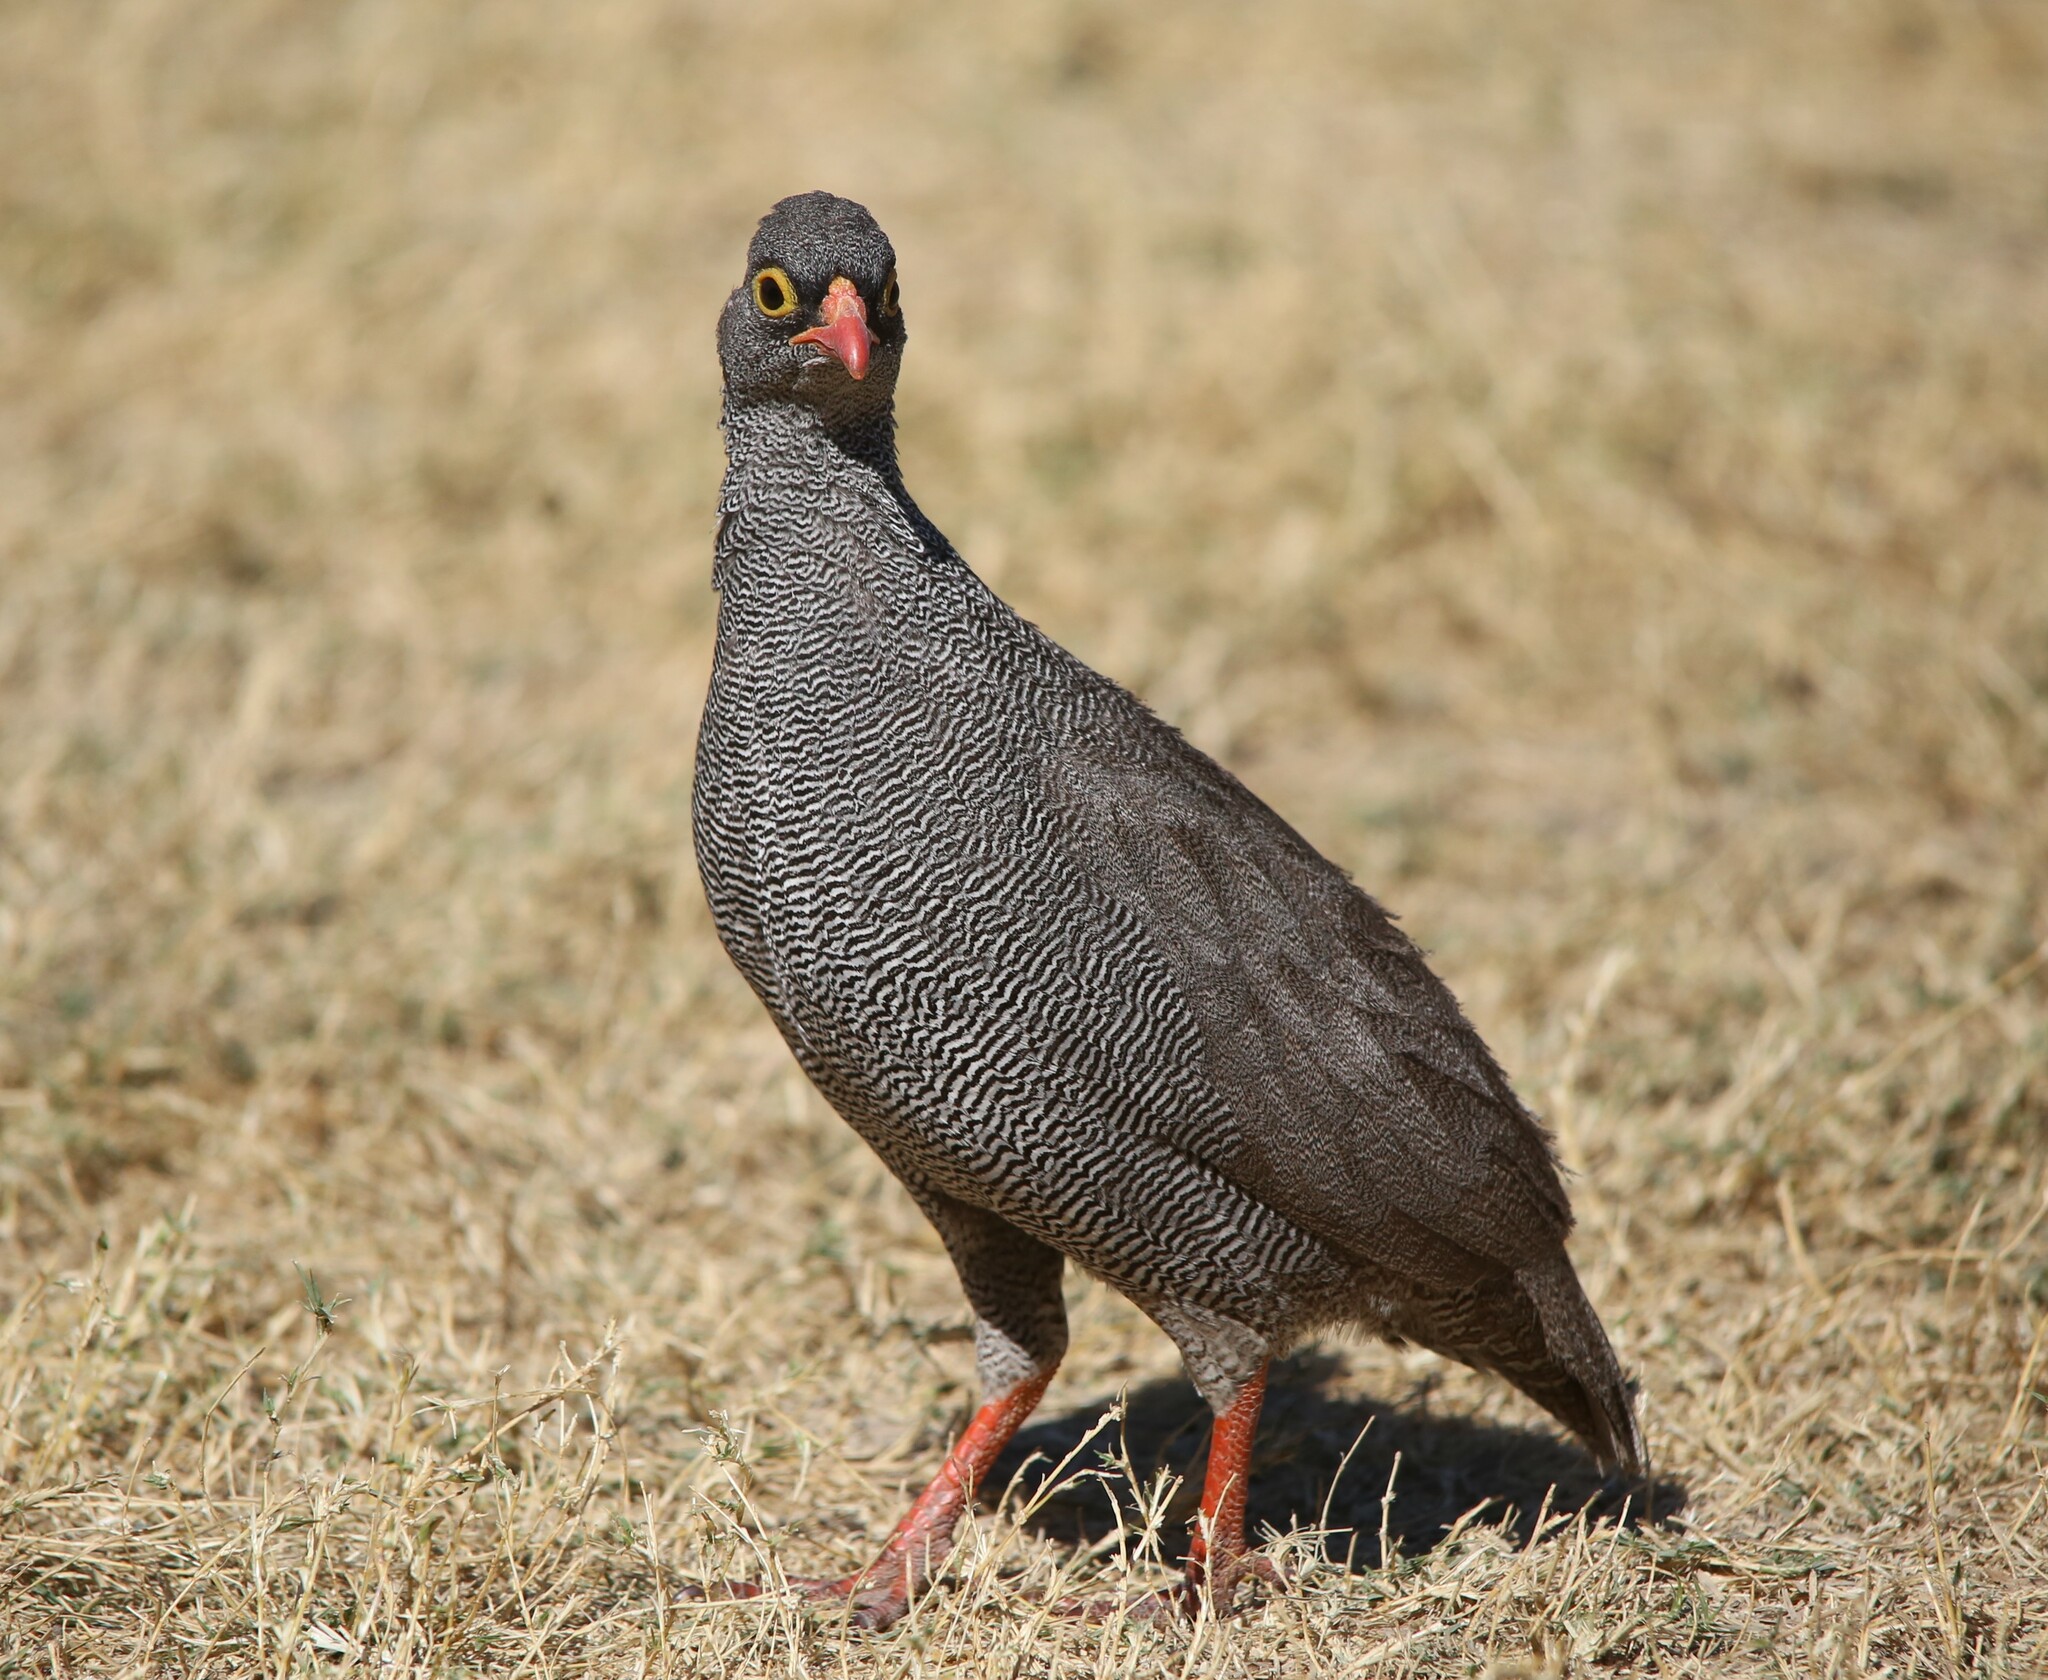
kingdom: Animalia
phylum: Chordata
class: Aves
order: Galliformes
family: Phasianidae
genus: Pternistis
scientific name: Pternistis adspersus
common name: Red-billed spurfowl
